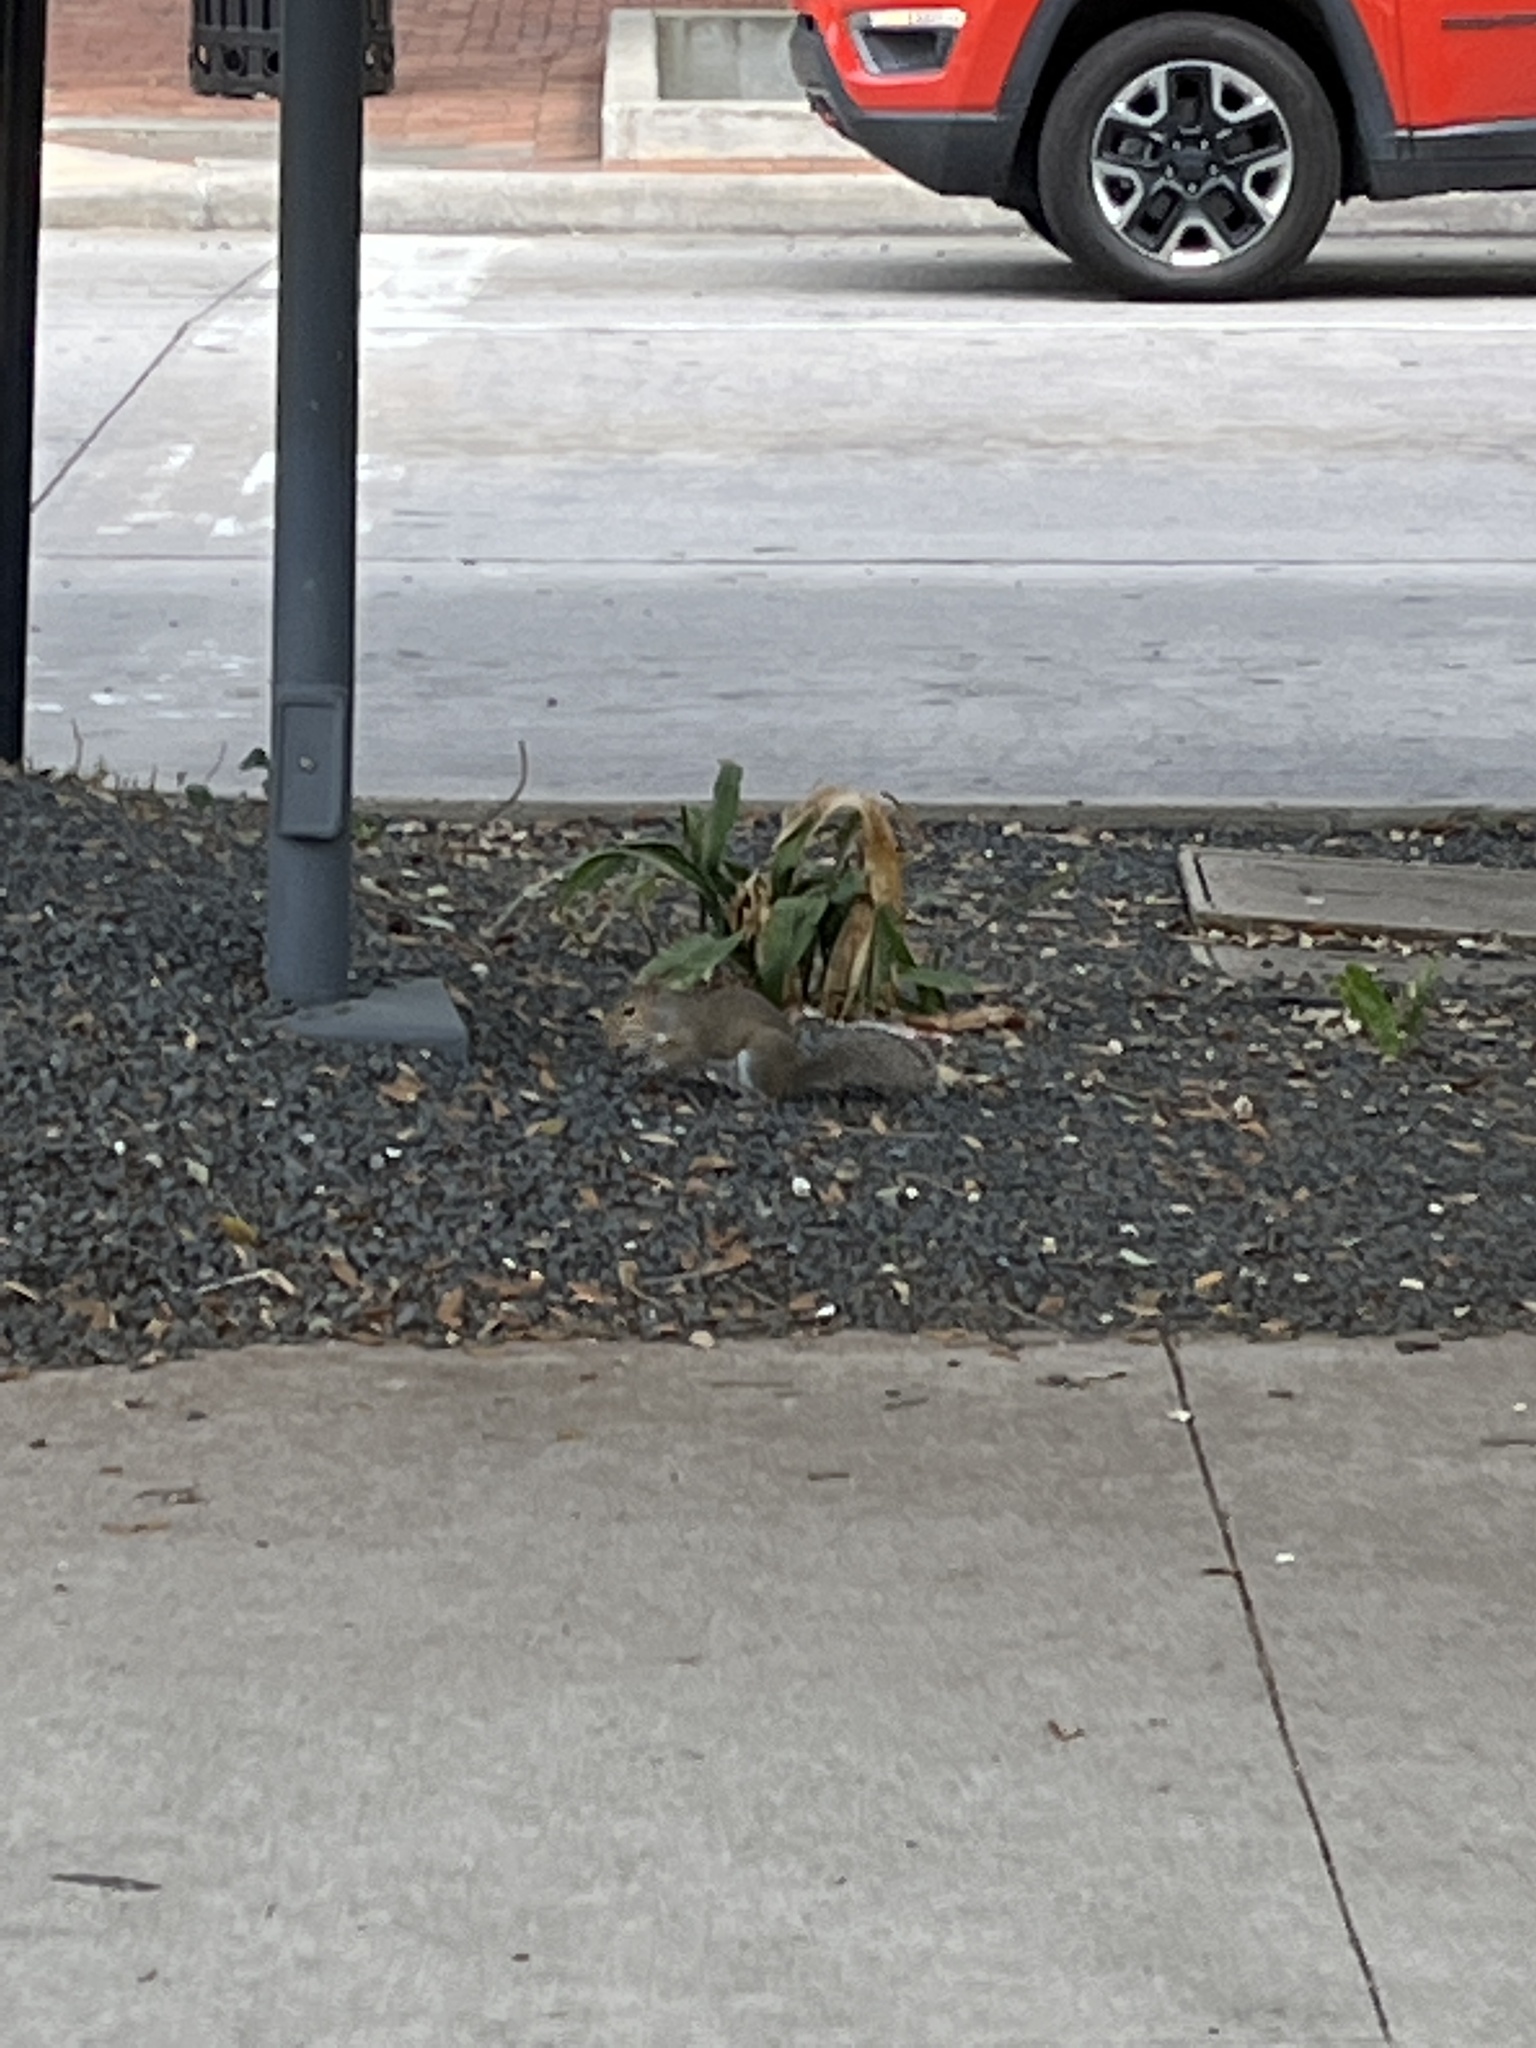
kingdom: Animalia
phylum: Chordata
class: Mammalia
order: Rodentia
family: Sciuridae
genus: Sciurus
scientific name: Sciurus carolinensis
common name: Eastern gray squirrel
